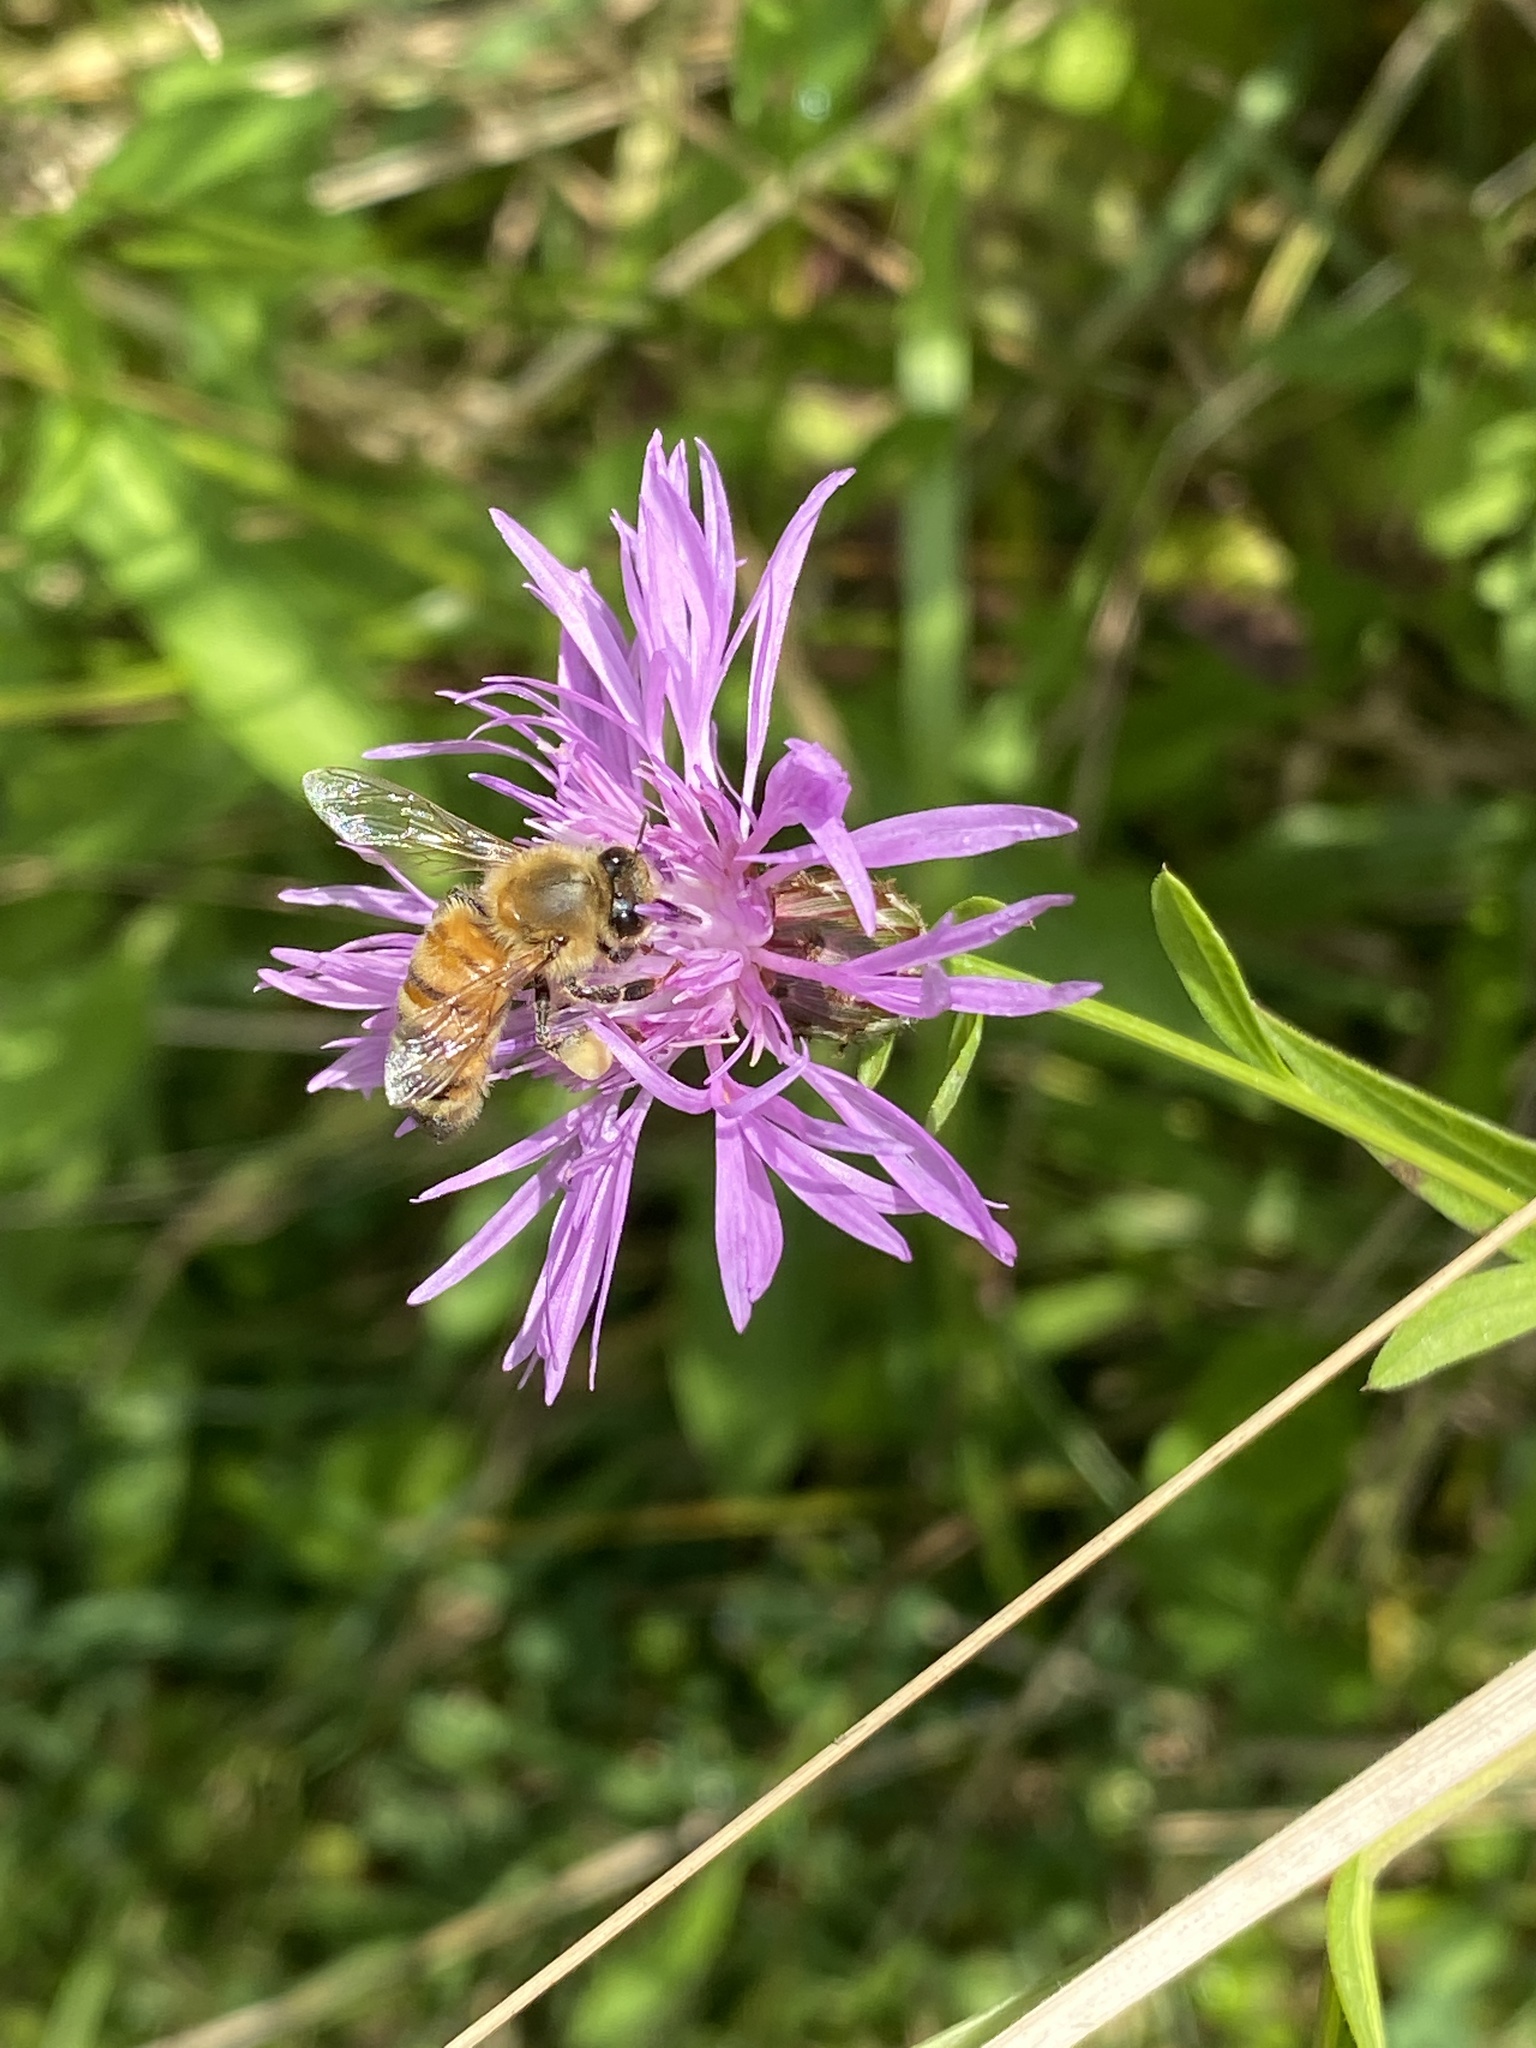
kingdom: Plantae
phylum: Tracheophyta
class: Magnoliopsida
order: Asterales
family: Asteraceae
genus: Centaurea
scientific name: Centaurea nigrescens
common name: Tyrol knapweed
